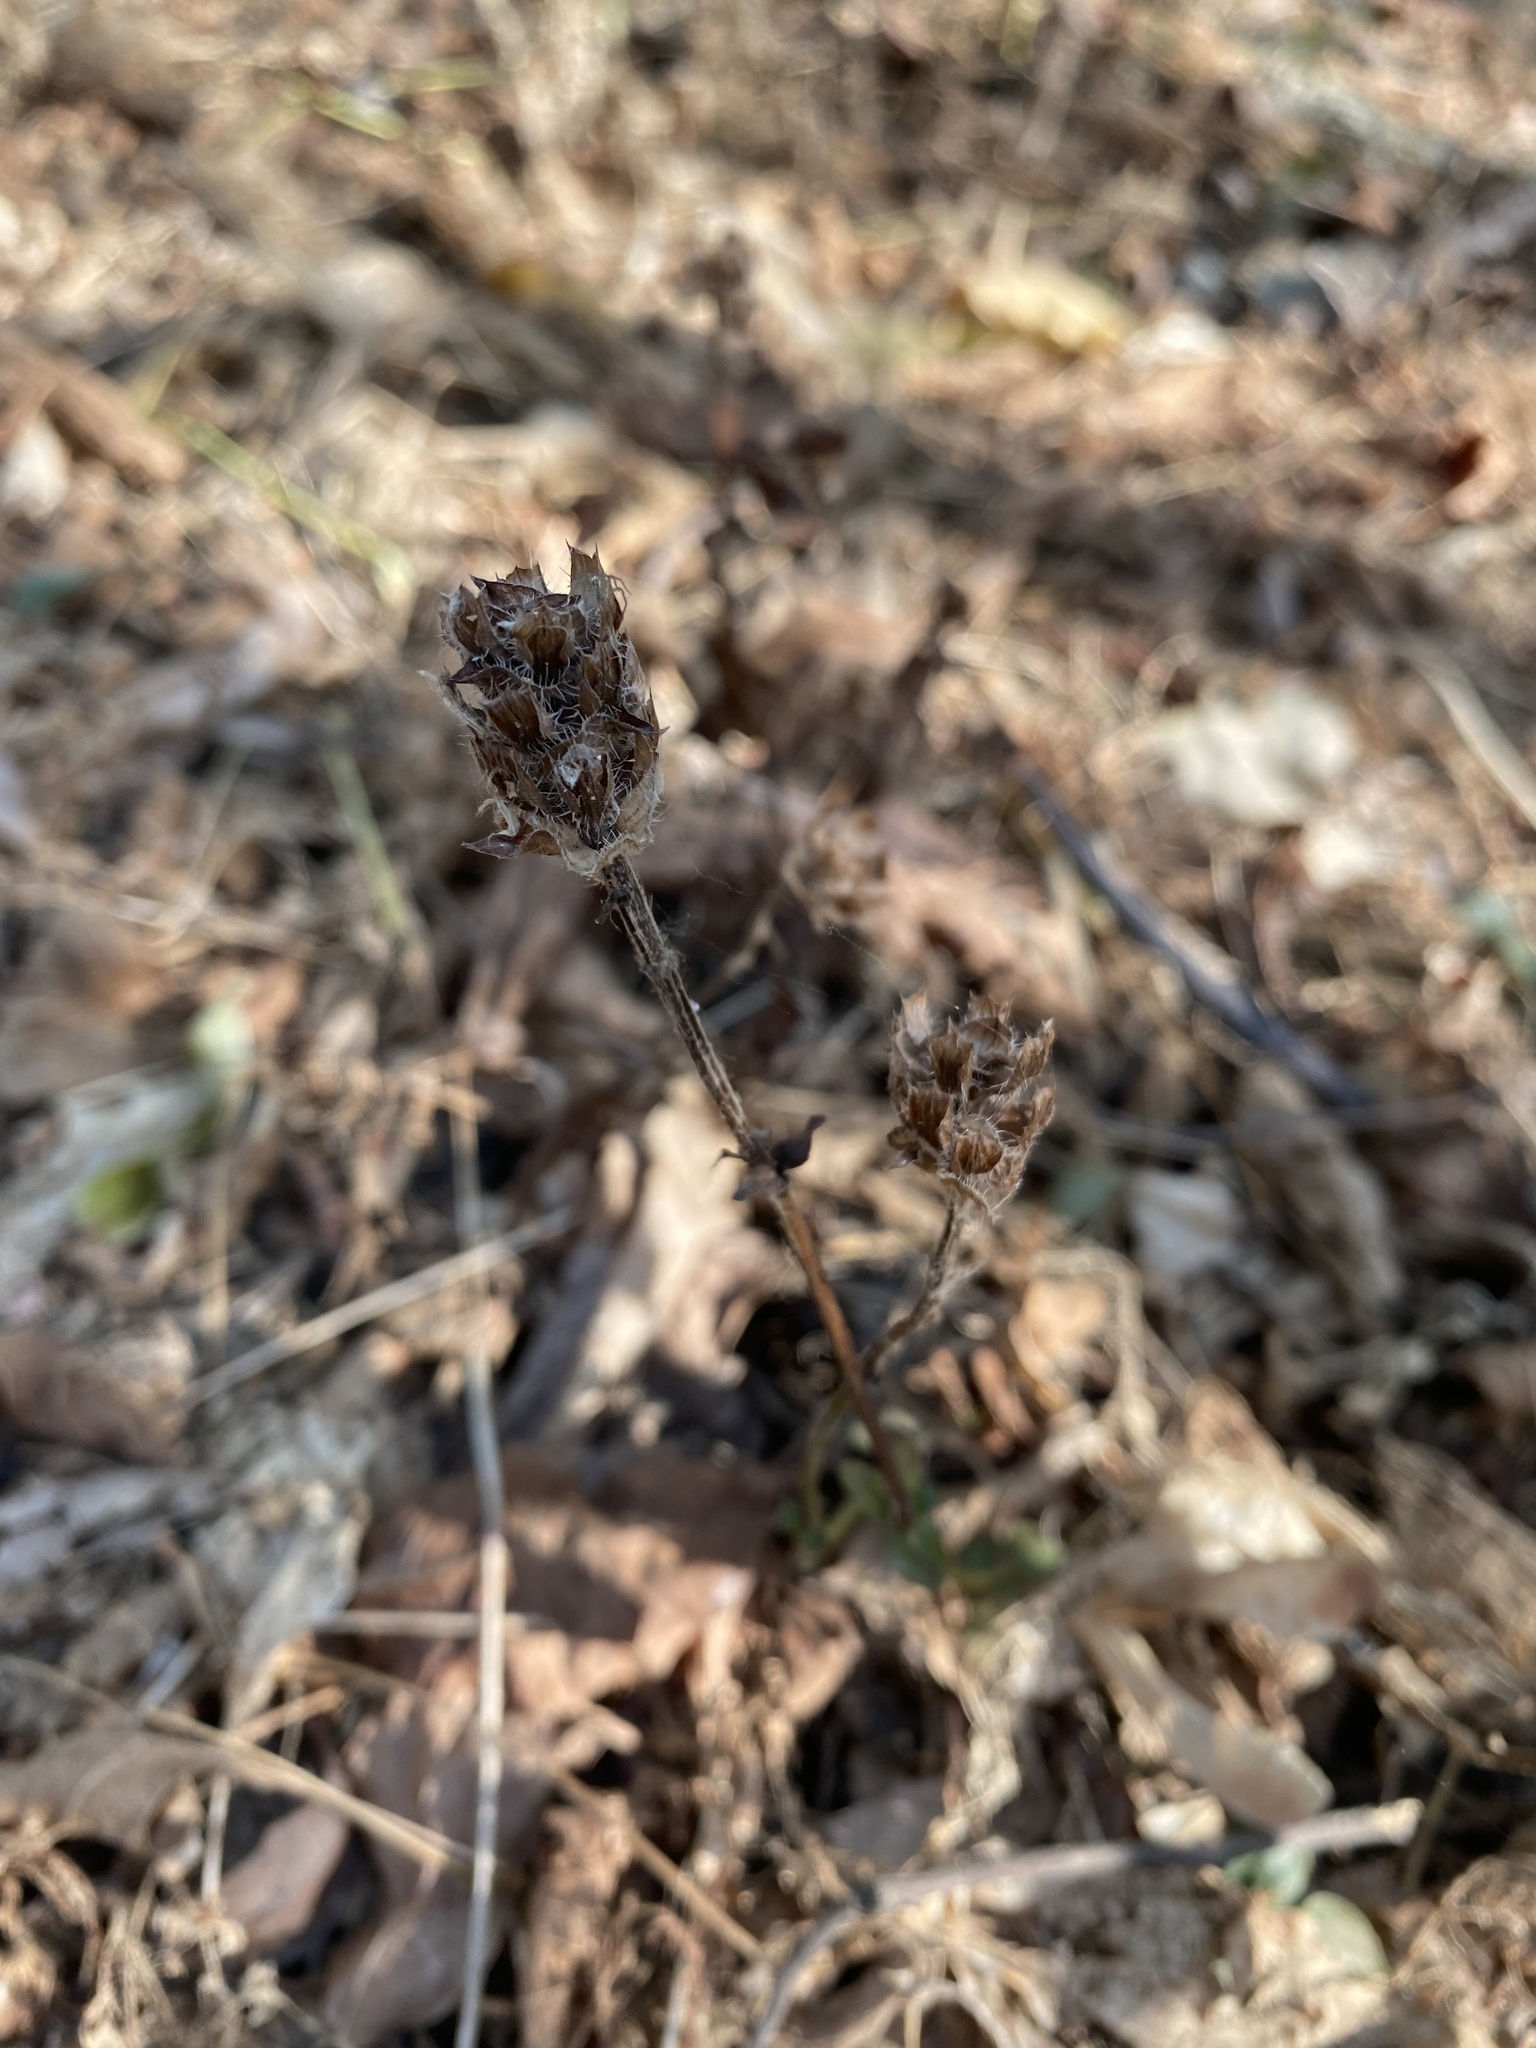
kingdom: Plantae
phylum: Tracheophyta
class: Magnoliopsida
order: Lamiales
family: Lamiaceae
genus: Prunella
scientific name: Prunella vulgaris
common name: Heal-all
